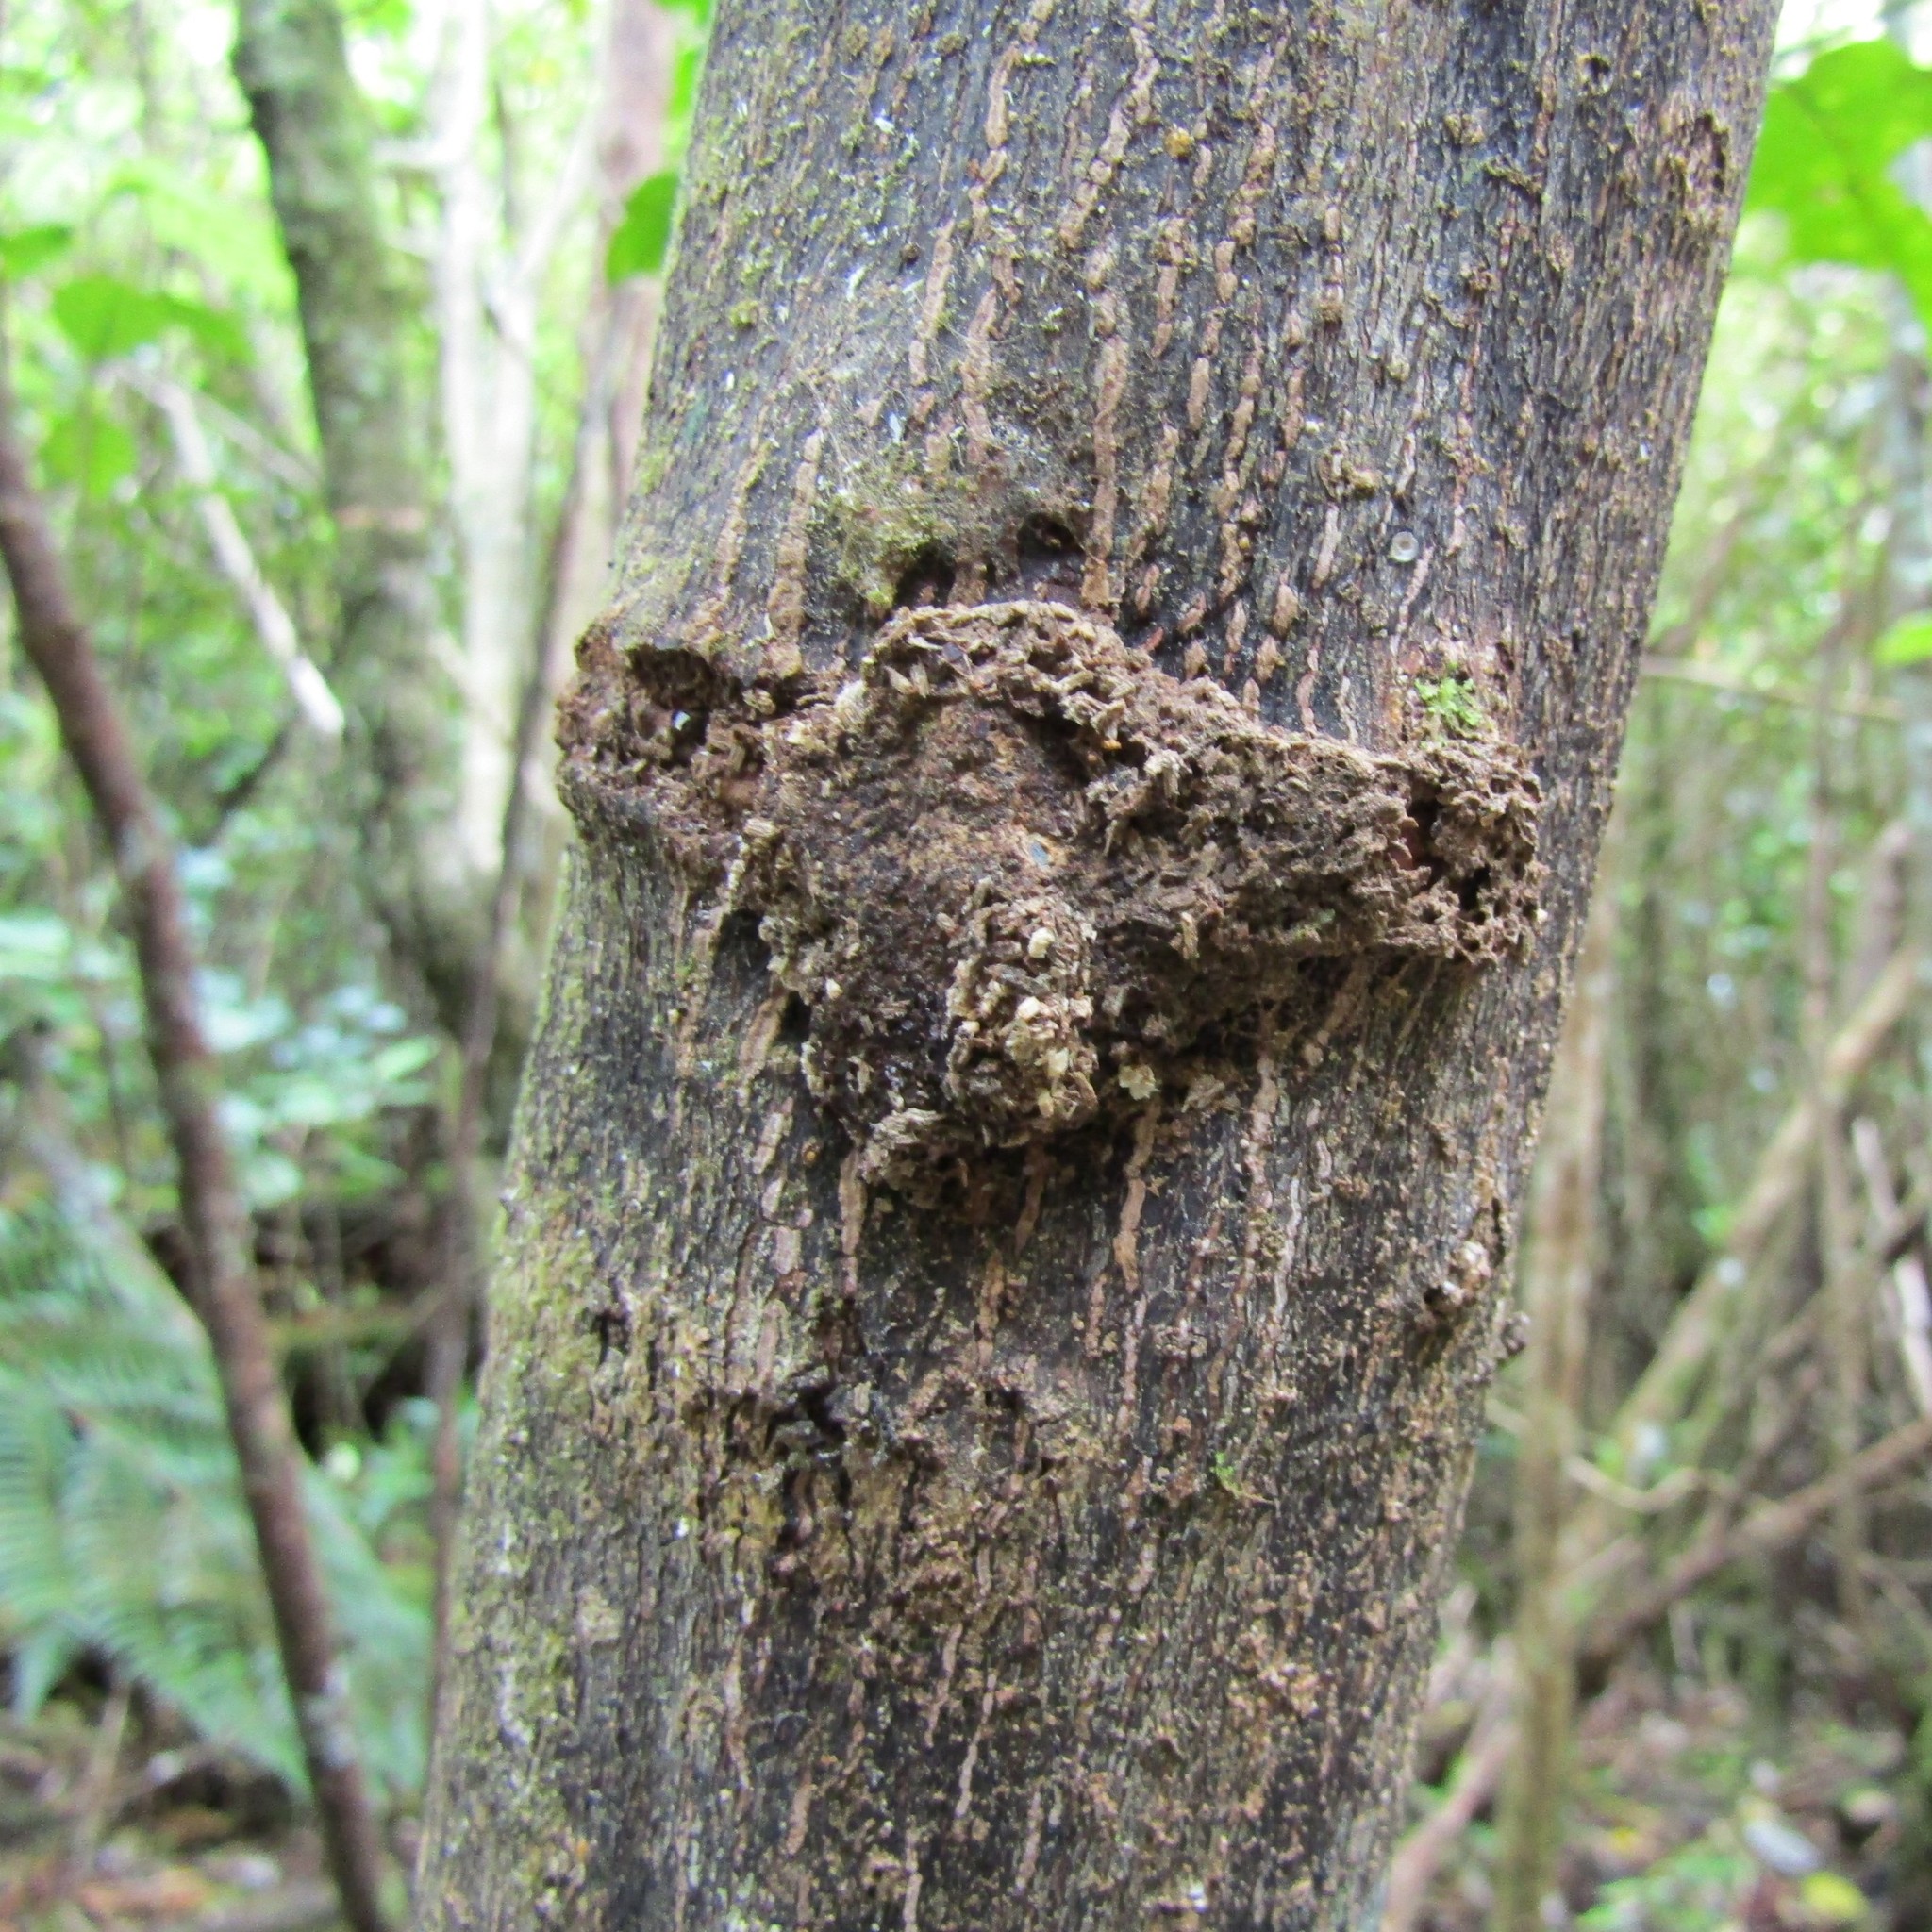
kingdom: Animalia
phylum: Arthropoda
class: Insecta
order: Lepidoptera
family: Hepialidae
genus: Aenetus
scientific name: Aenetus virescens
